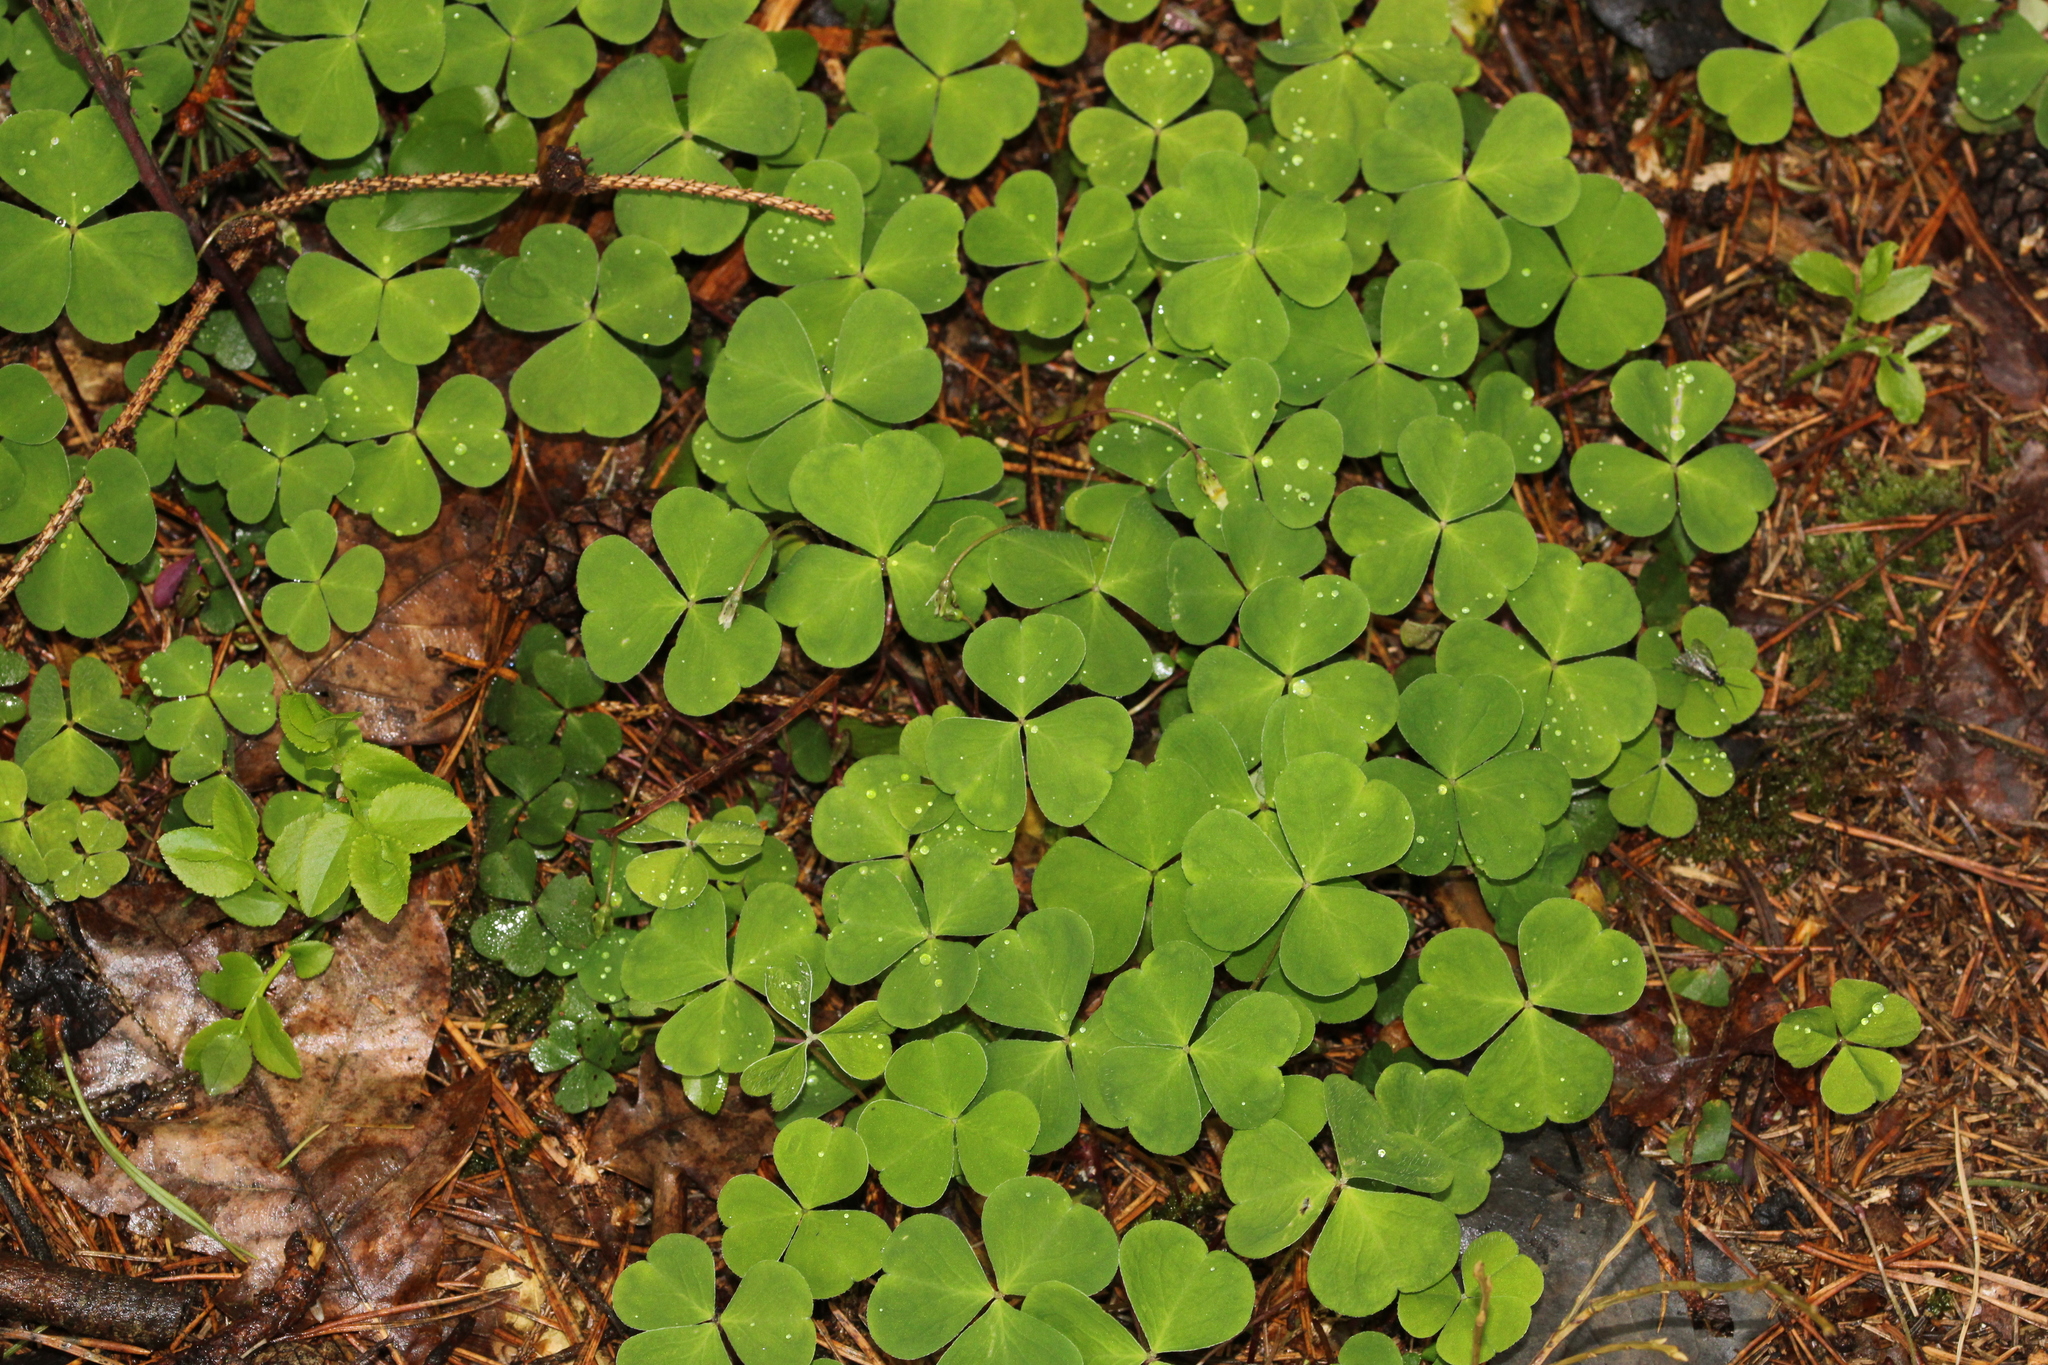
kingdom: Plantae
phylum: Tracheophyta
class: Magnoliopsida
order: Oxalidales
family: Oxalidaceae
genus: Oxalis
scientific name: Oxalis acetosella
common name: Wood-sorrel
